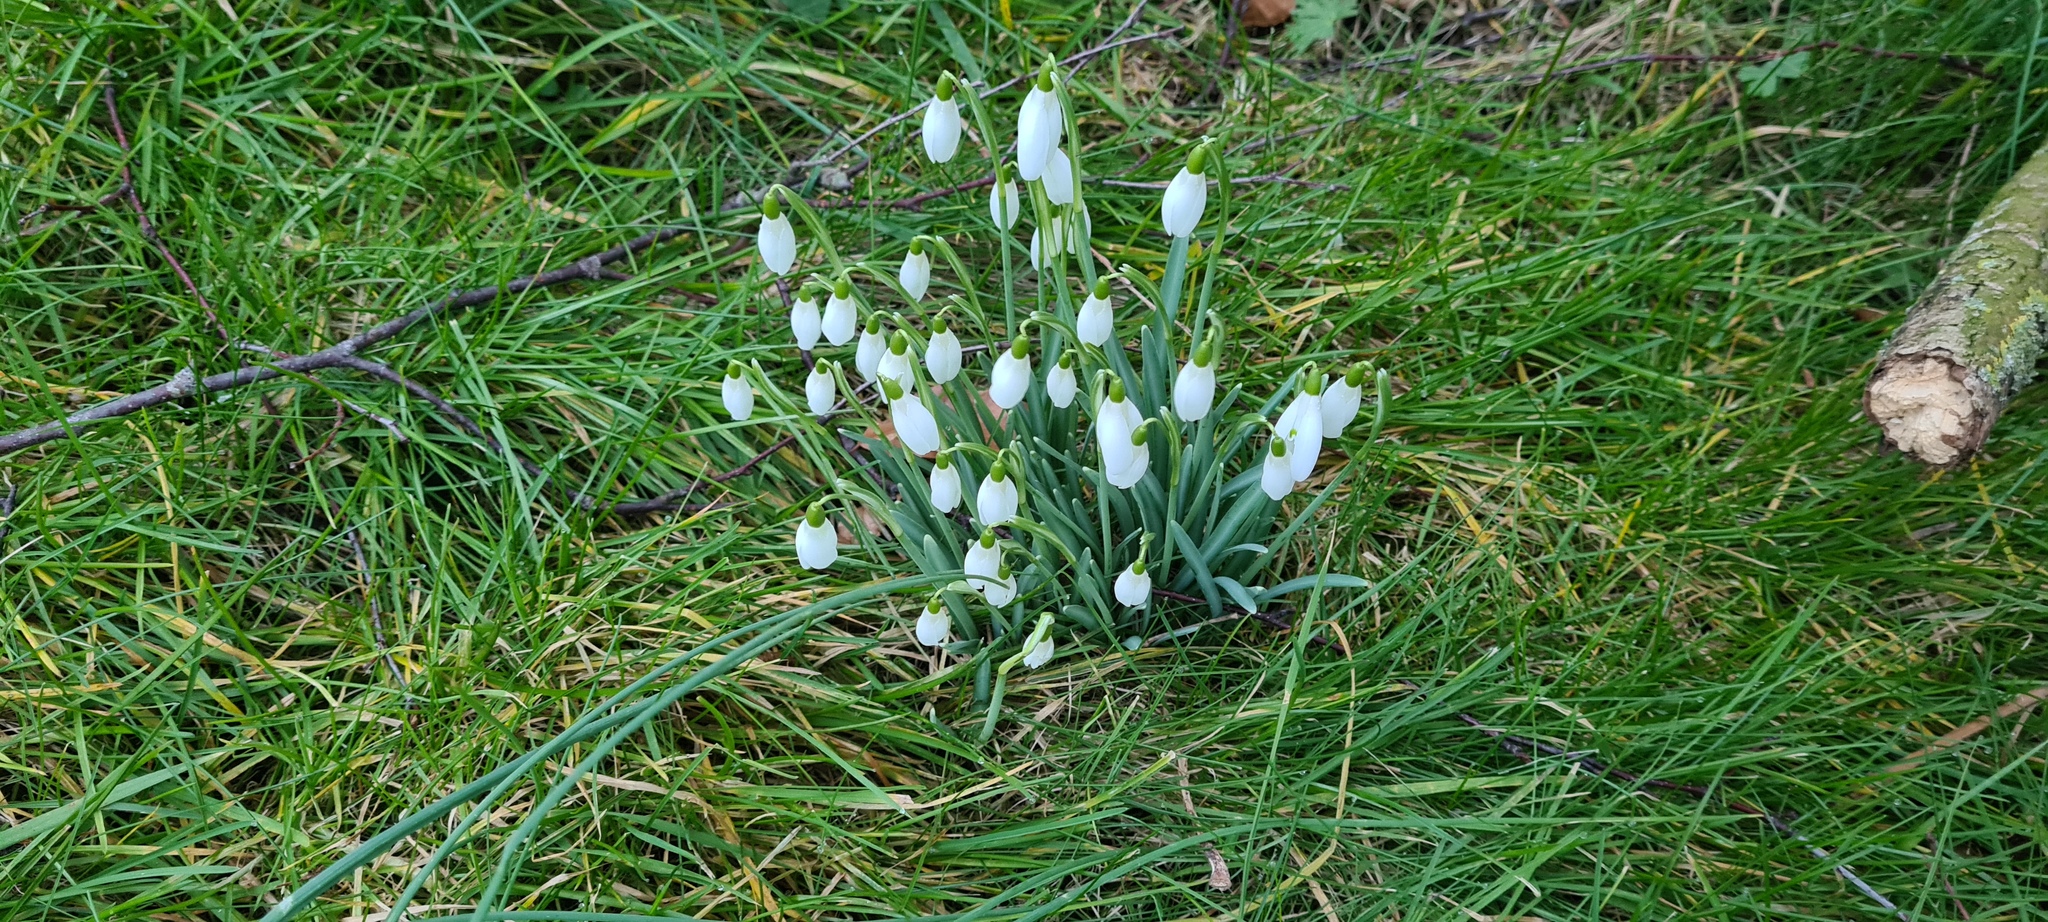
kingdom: Plantae
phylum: Tracheophyta
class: Liliopsida
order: Asparagales
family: Amaryllidaceae
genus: Galanthus
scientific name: Galanthus nivalis
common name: Snowdrop
